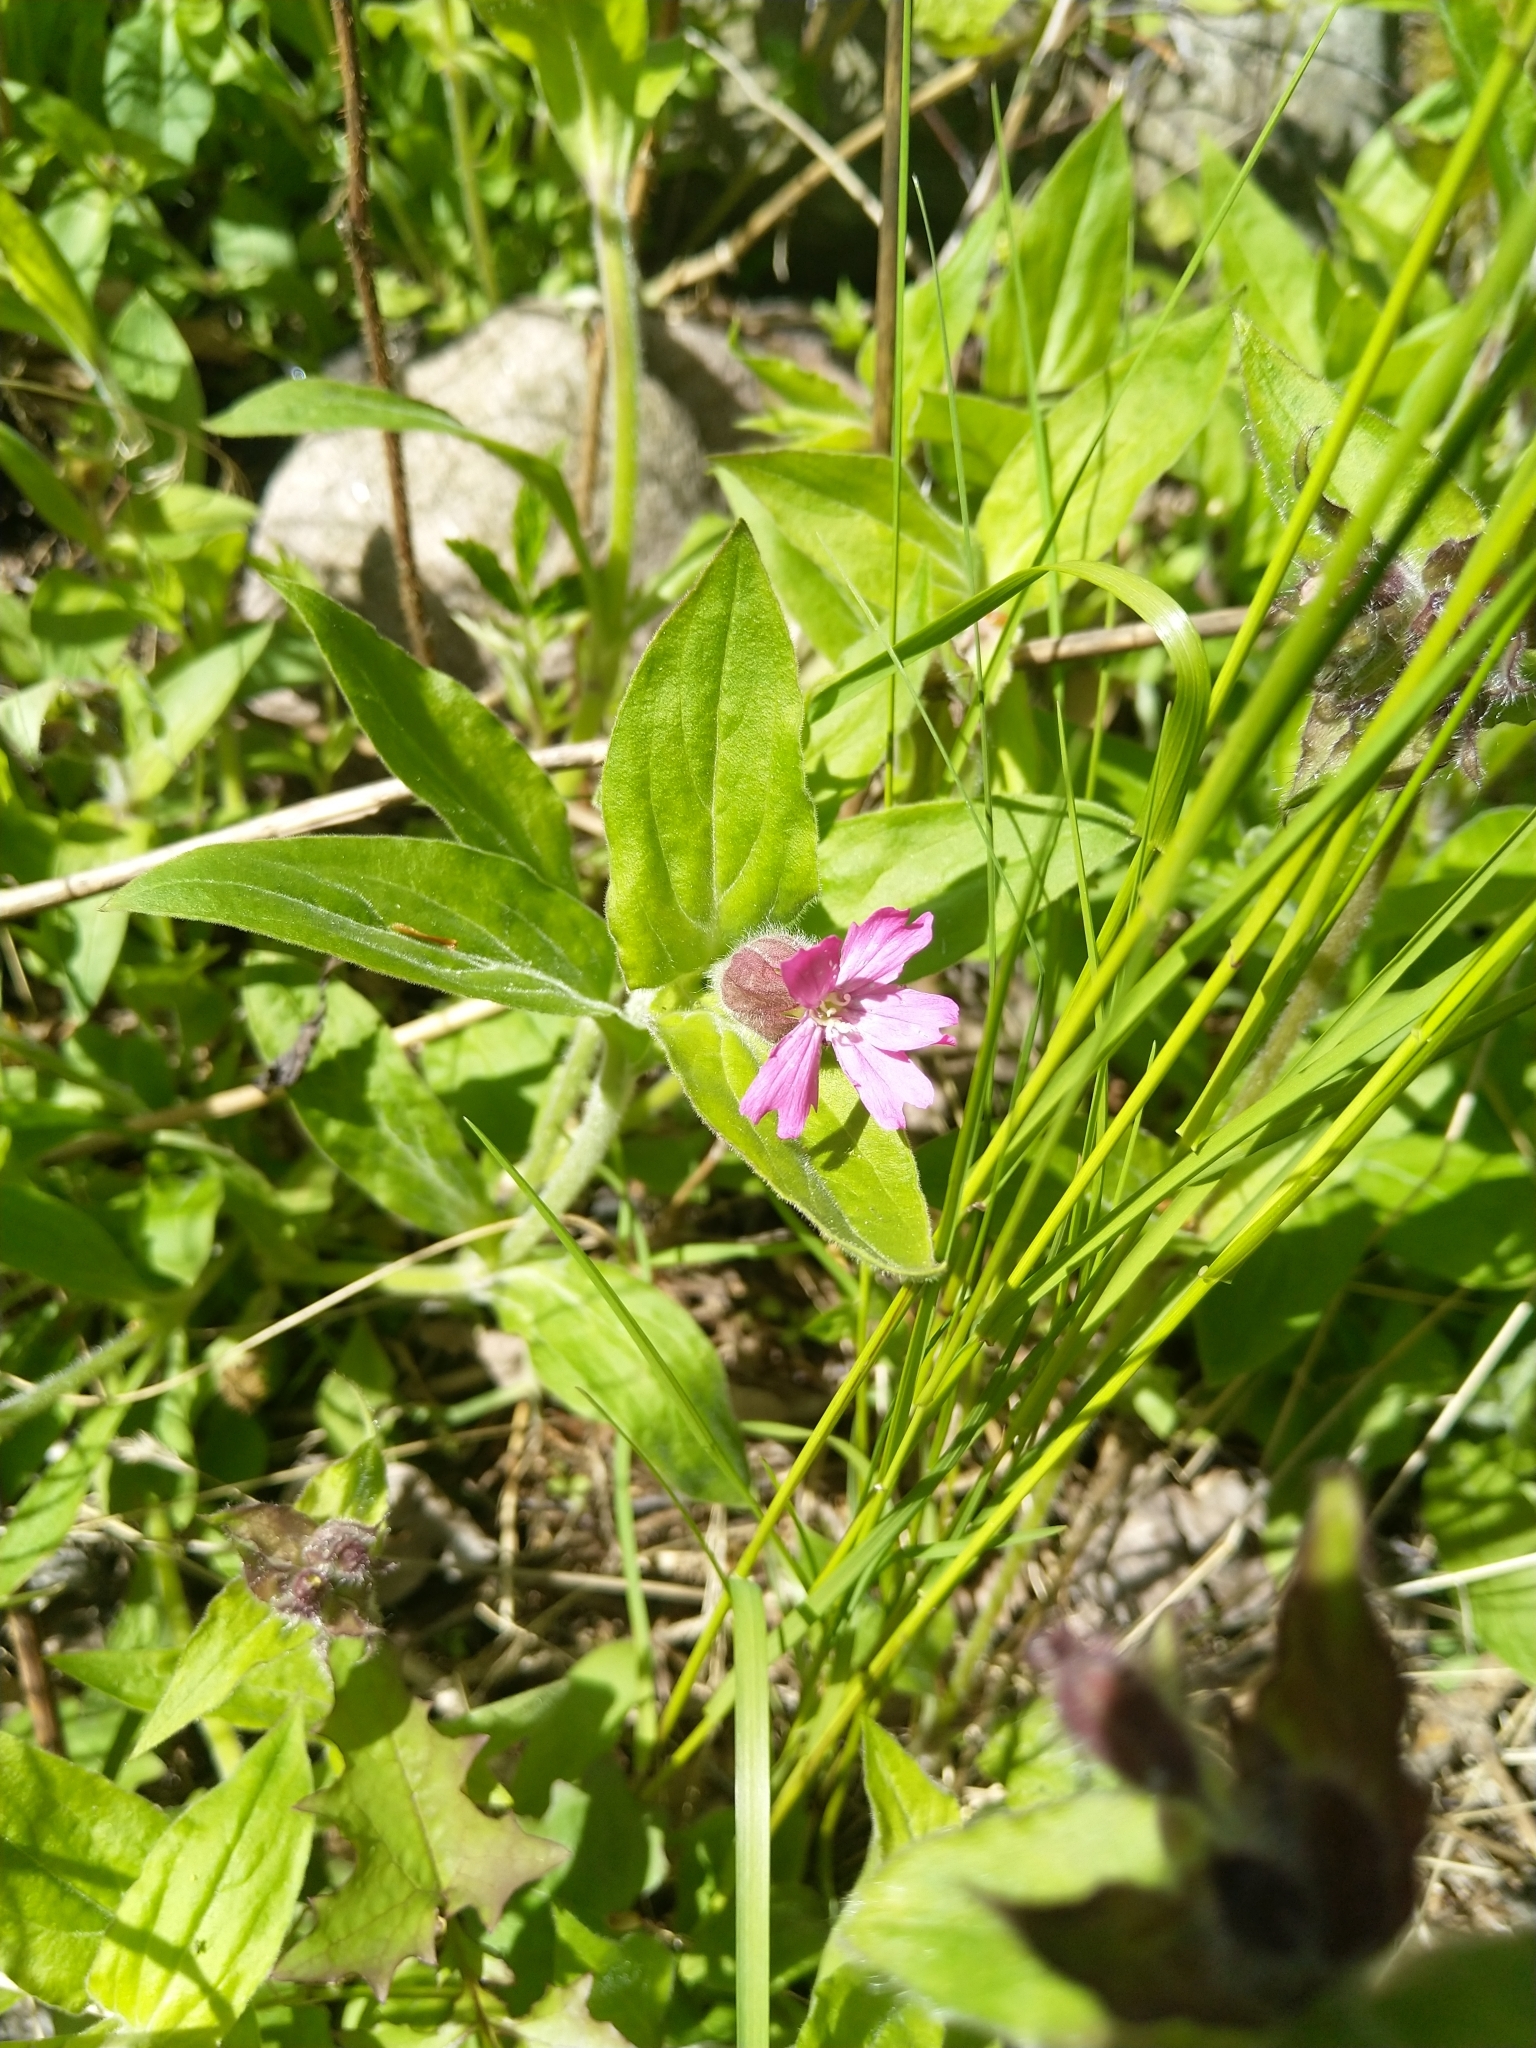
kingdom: Plantae
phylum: Tracheophyta
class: Magnoliopsida
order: Caryophyllales
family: Caryophyllaceae
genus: Silene
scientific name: Silene dioica
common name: Red campion
